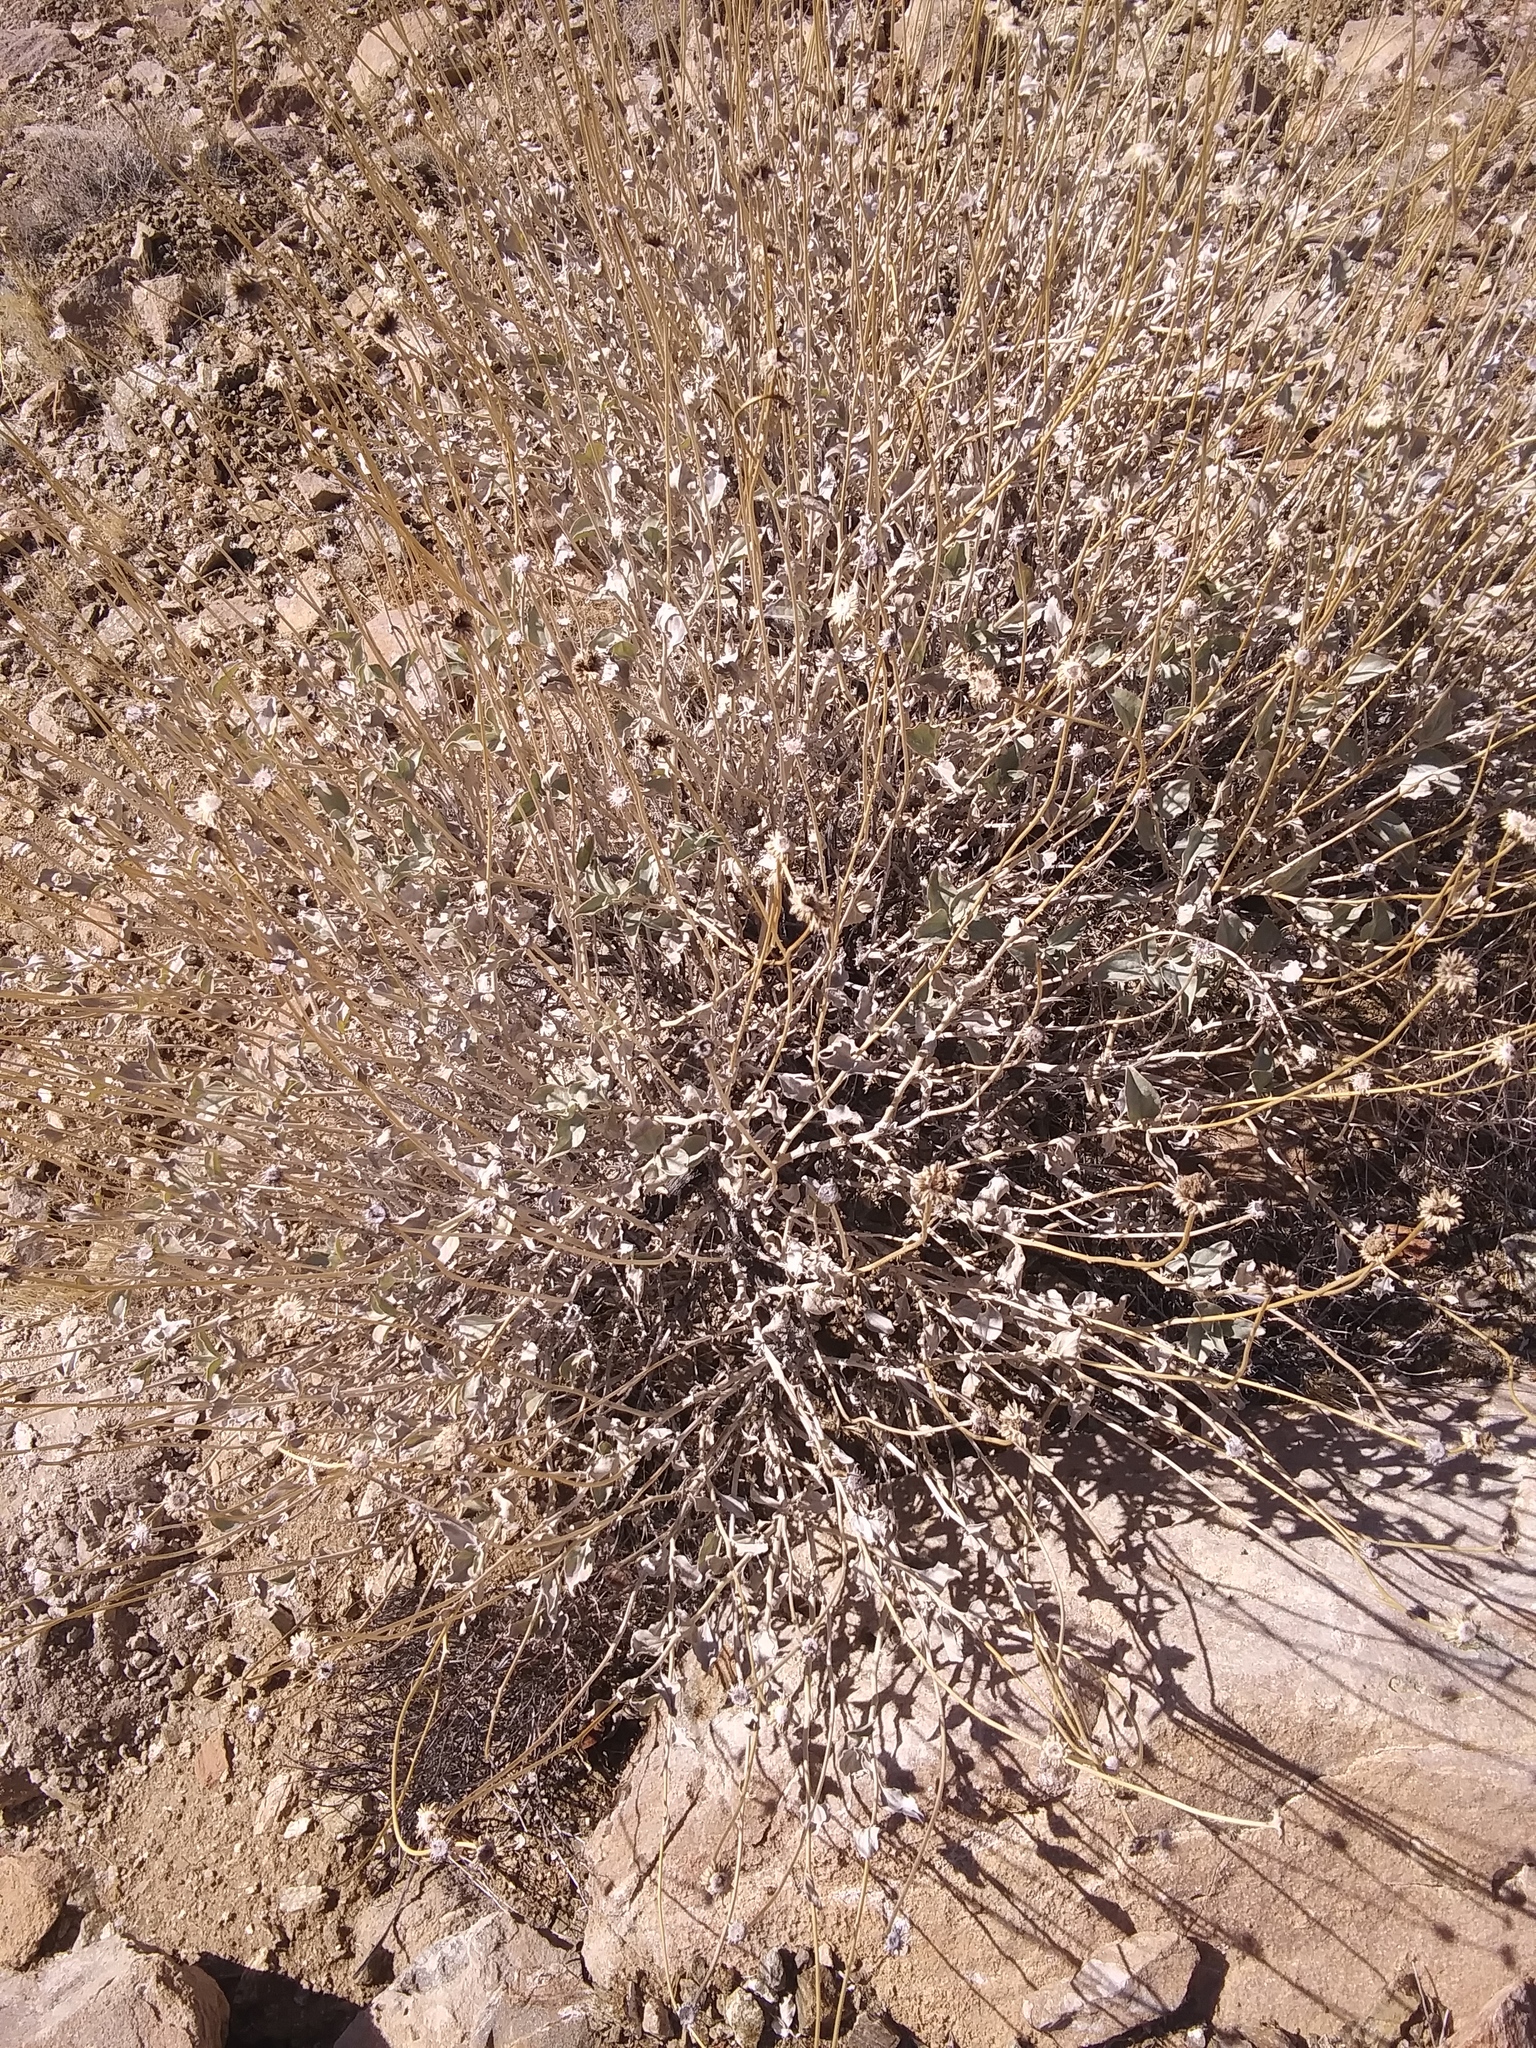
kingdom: Plantae
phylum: Tracheophyta
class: Magnoliopsida
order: Asterales
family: Asteraceae
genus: Encelia
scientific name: Encelia actoni
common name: Acton encelia
